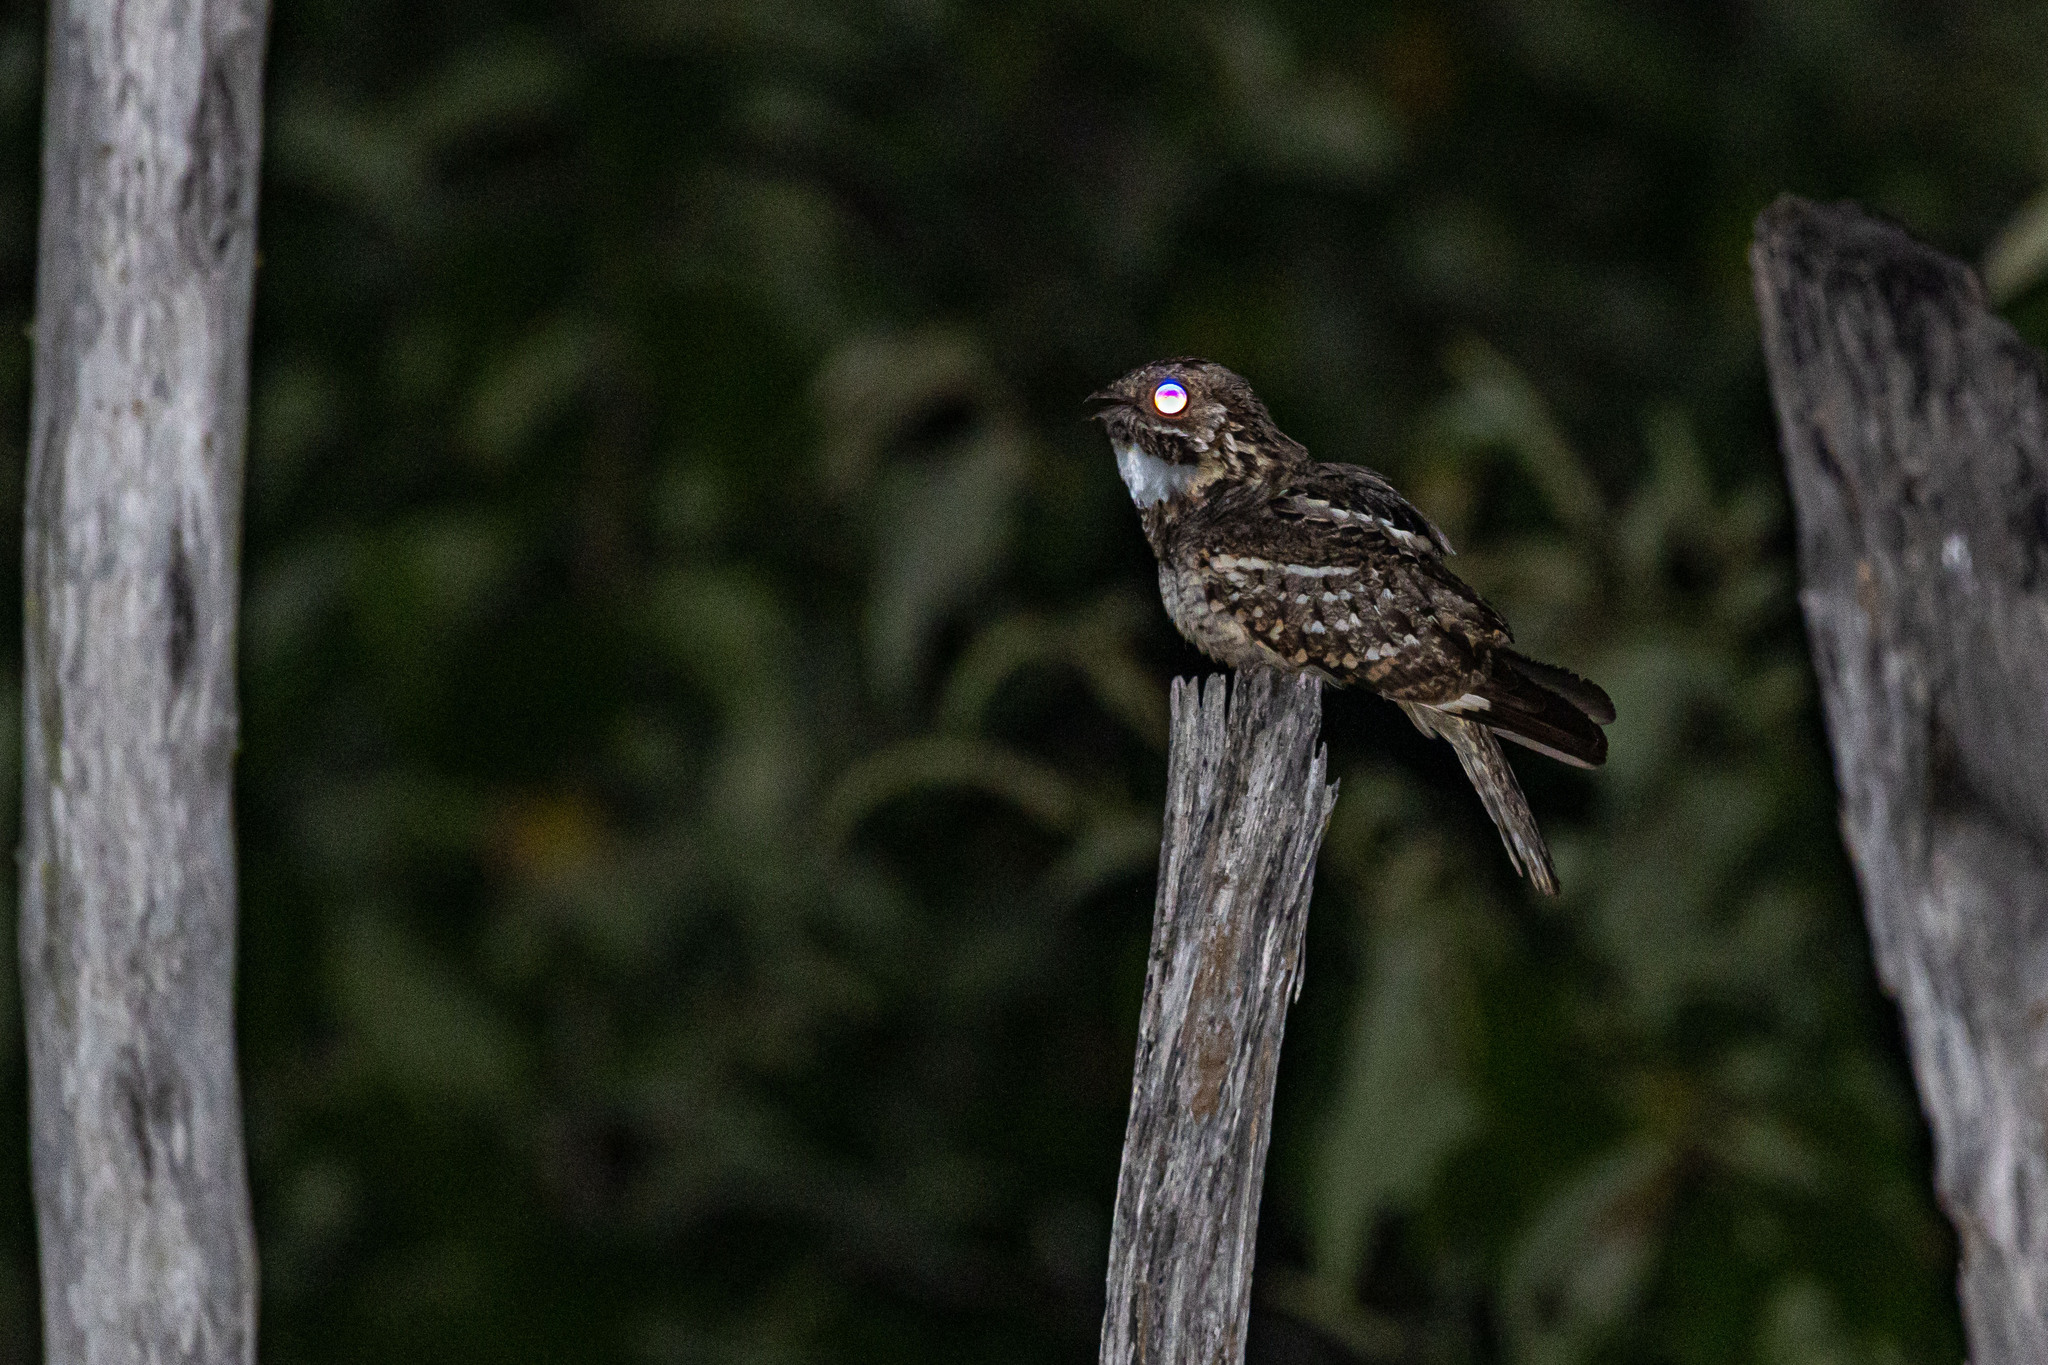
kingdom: Animalia
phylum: Chordata
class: Aves
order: Caprimulgiformes
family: Caprimulgidae
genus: Setopagis
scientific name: Setopagis parvula
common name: Little nightjar
